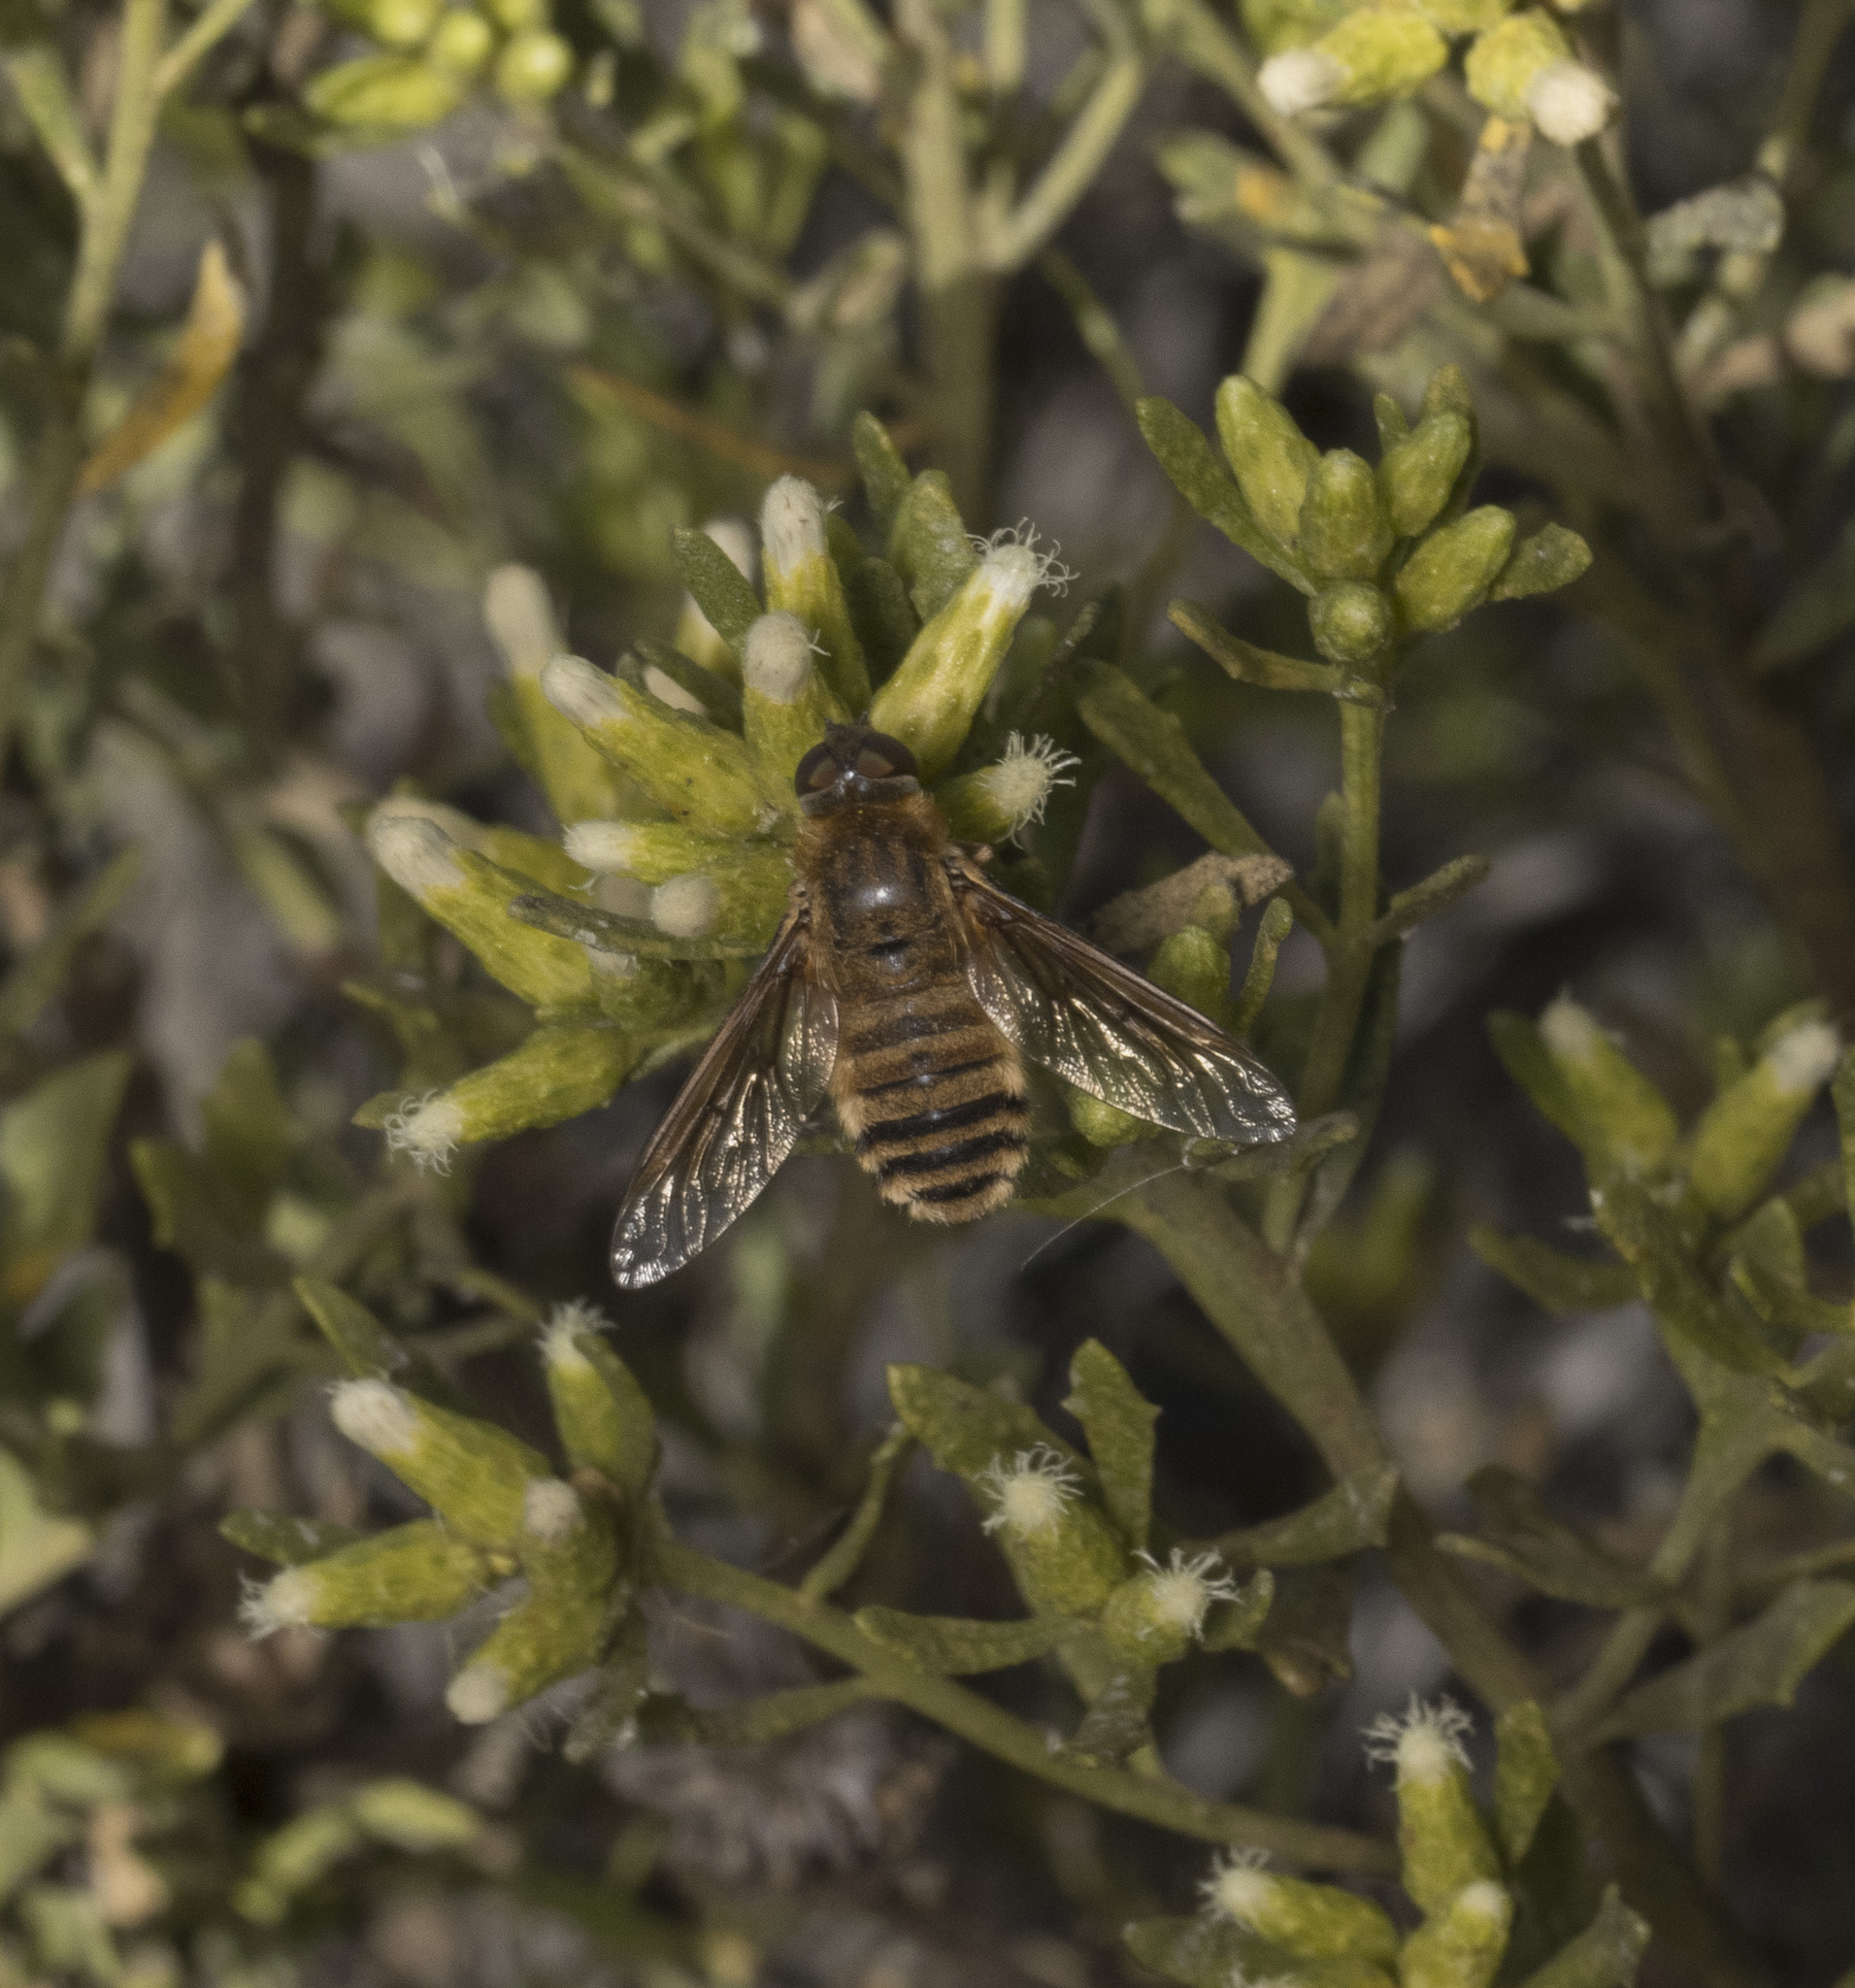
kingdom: Animalia
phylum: Arthropoda
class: Insecta
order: Diptera
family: Bombyliidae
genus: Villa
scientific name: Villa fulvipeda
